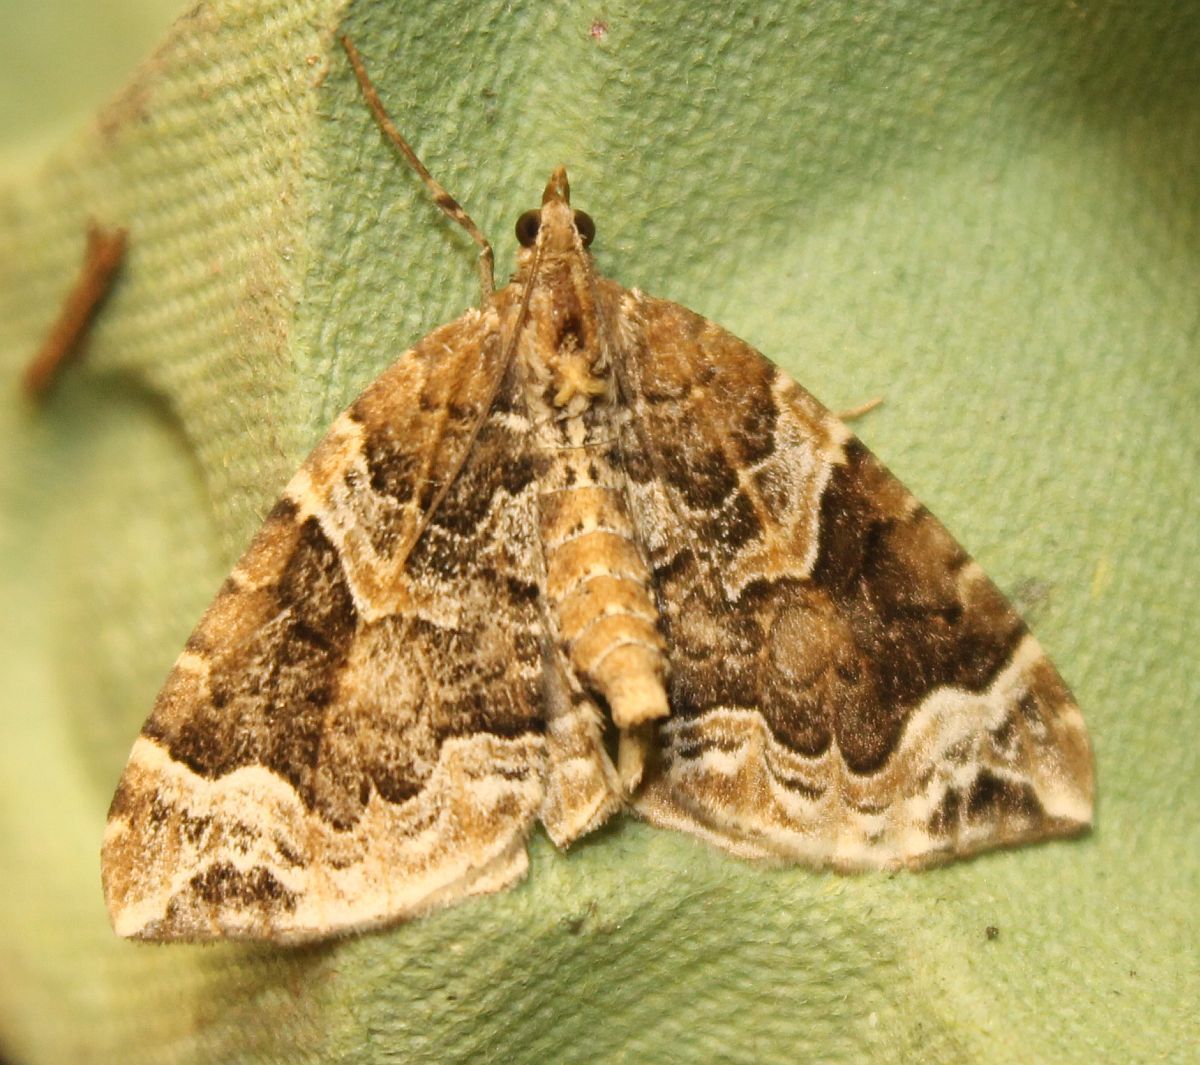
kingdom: Animalia
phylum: Arthropoda
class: Insecta
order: Lepidoptera
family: Geometridae
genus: Eulithis
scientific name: Eulithis prunata
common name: Phoenix
